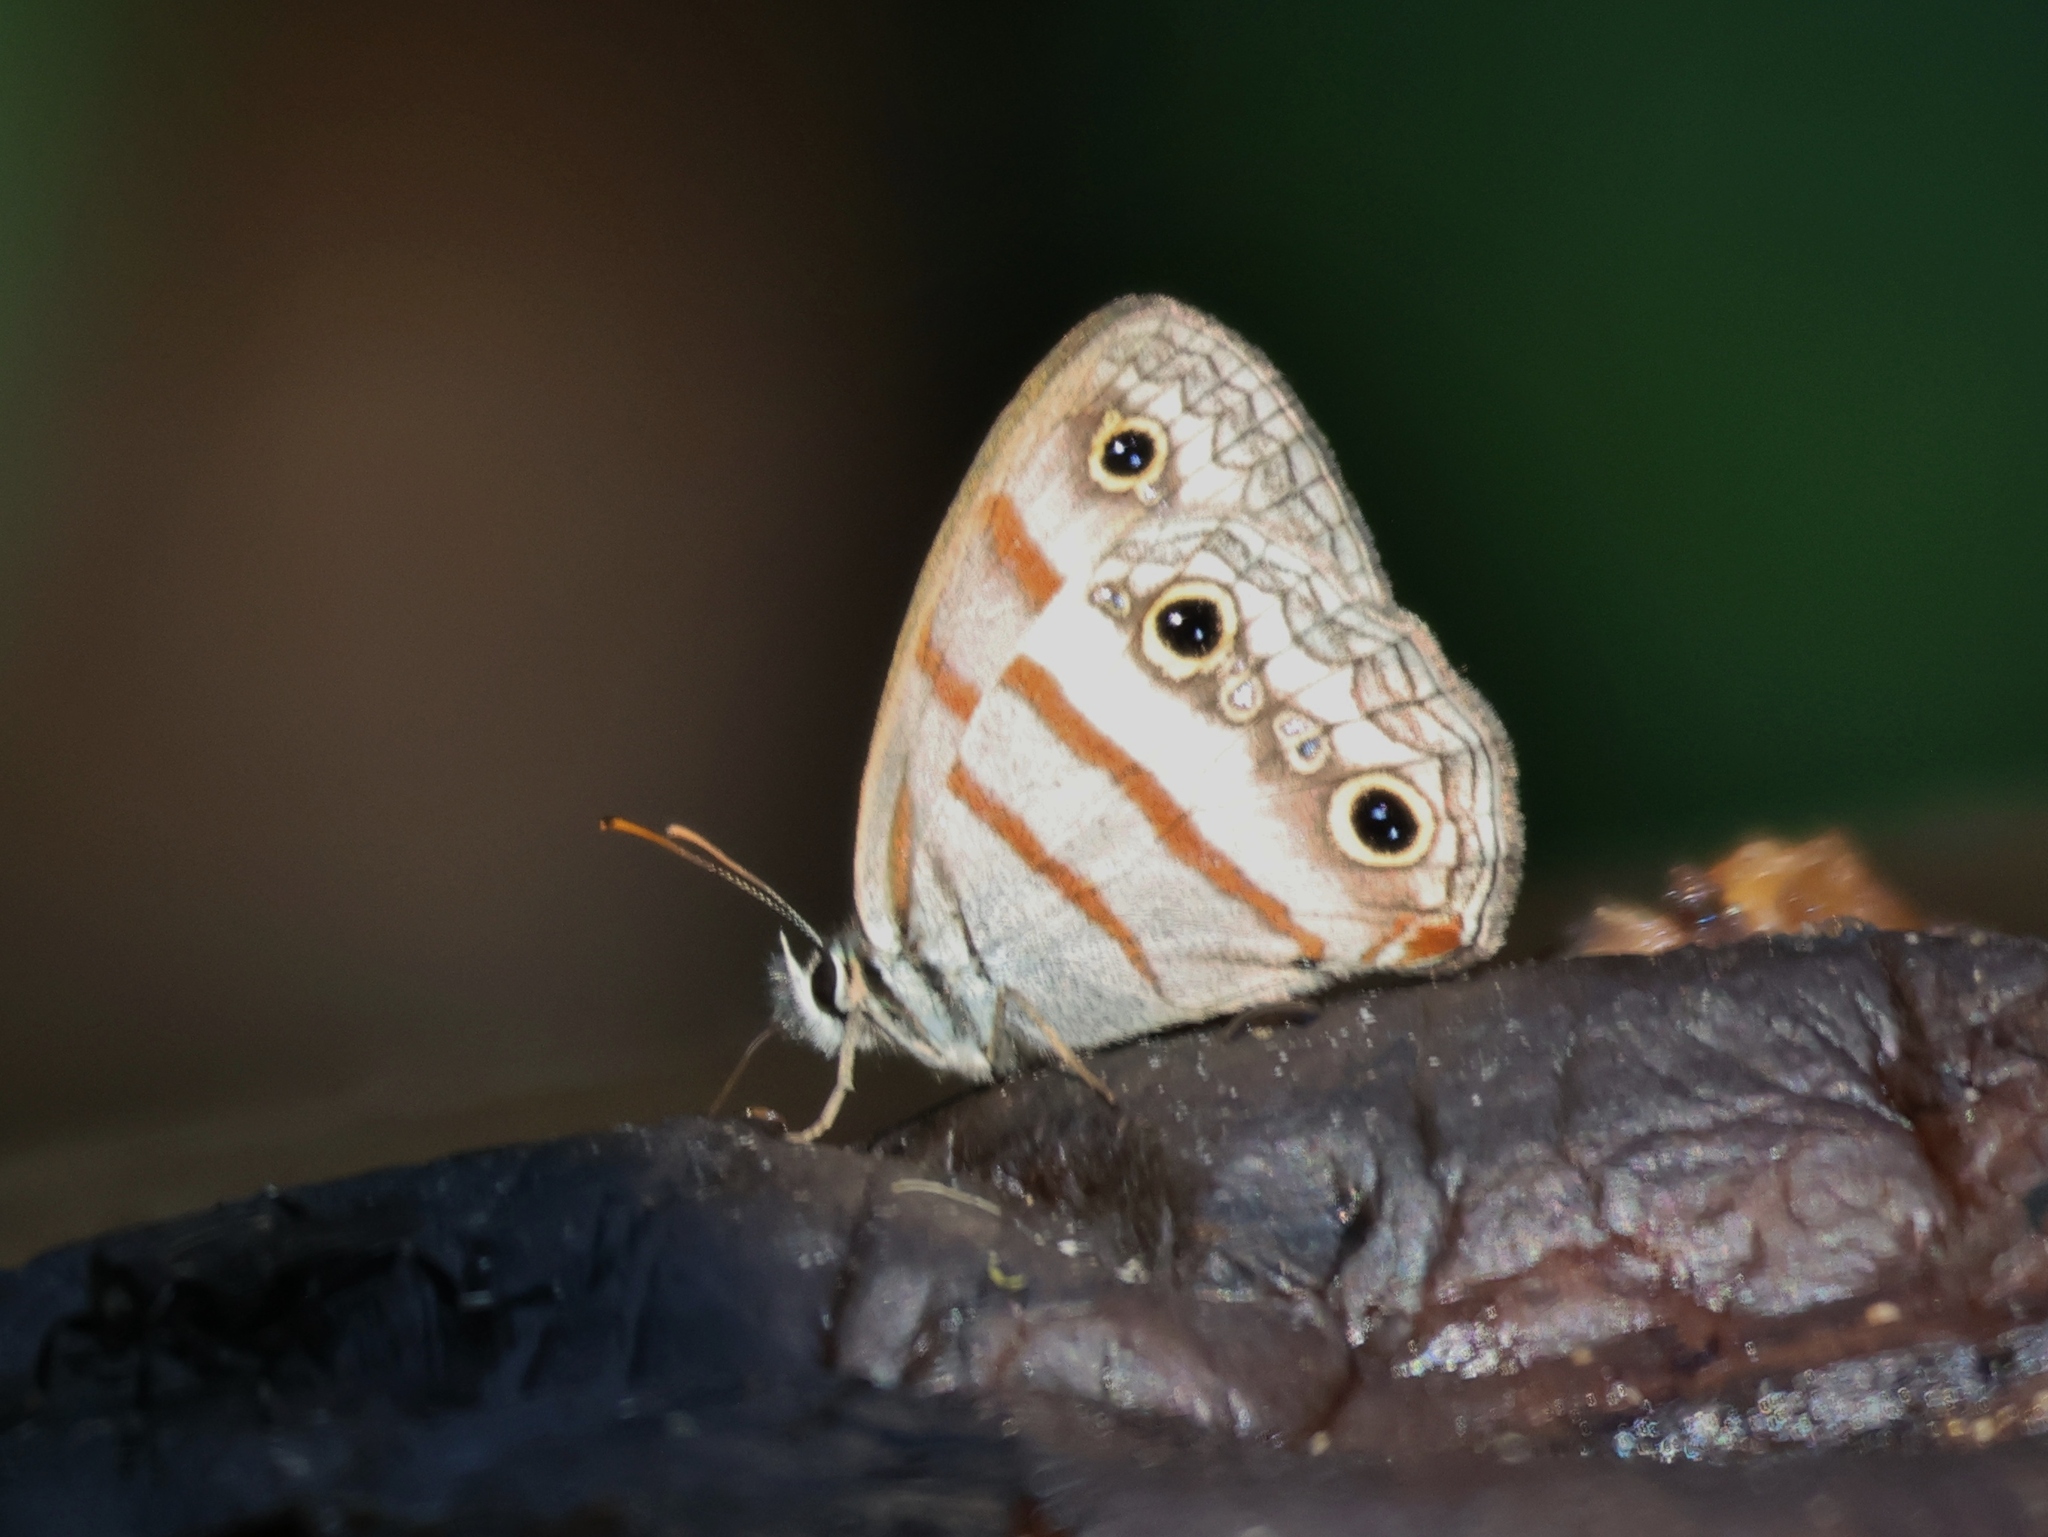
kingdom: Animalia
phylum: Arthropoda
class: Insecta
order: Lepidoptera
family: Nymphalidae
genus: Argyreuptychia
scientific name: Argyreuptychia labe
